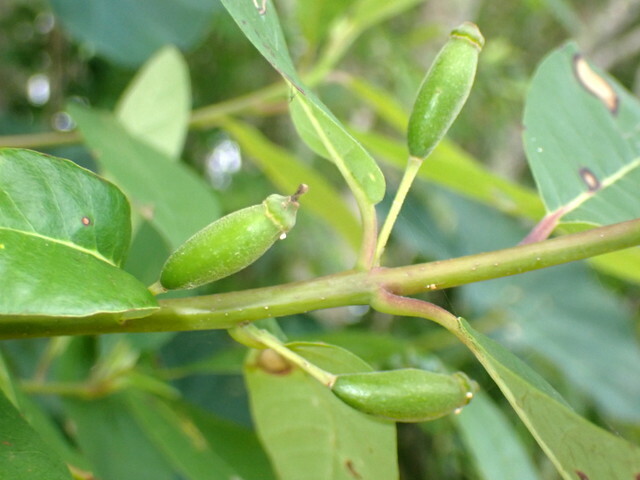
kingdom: Plantae
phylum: Tracheophyta
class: Magnoliopsida
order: Cornales
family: Nyssaceae
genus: Nyssa
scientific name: Nyssa ogeche
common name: Ogeechee tupelo
